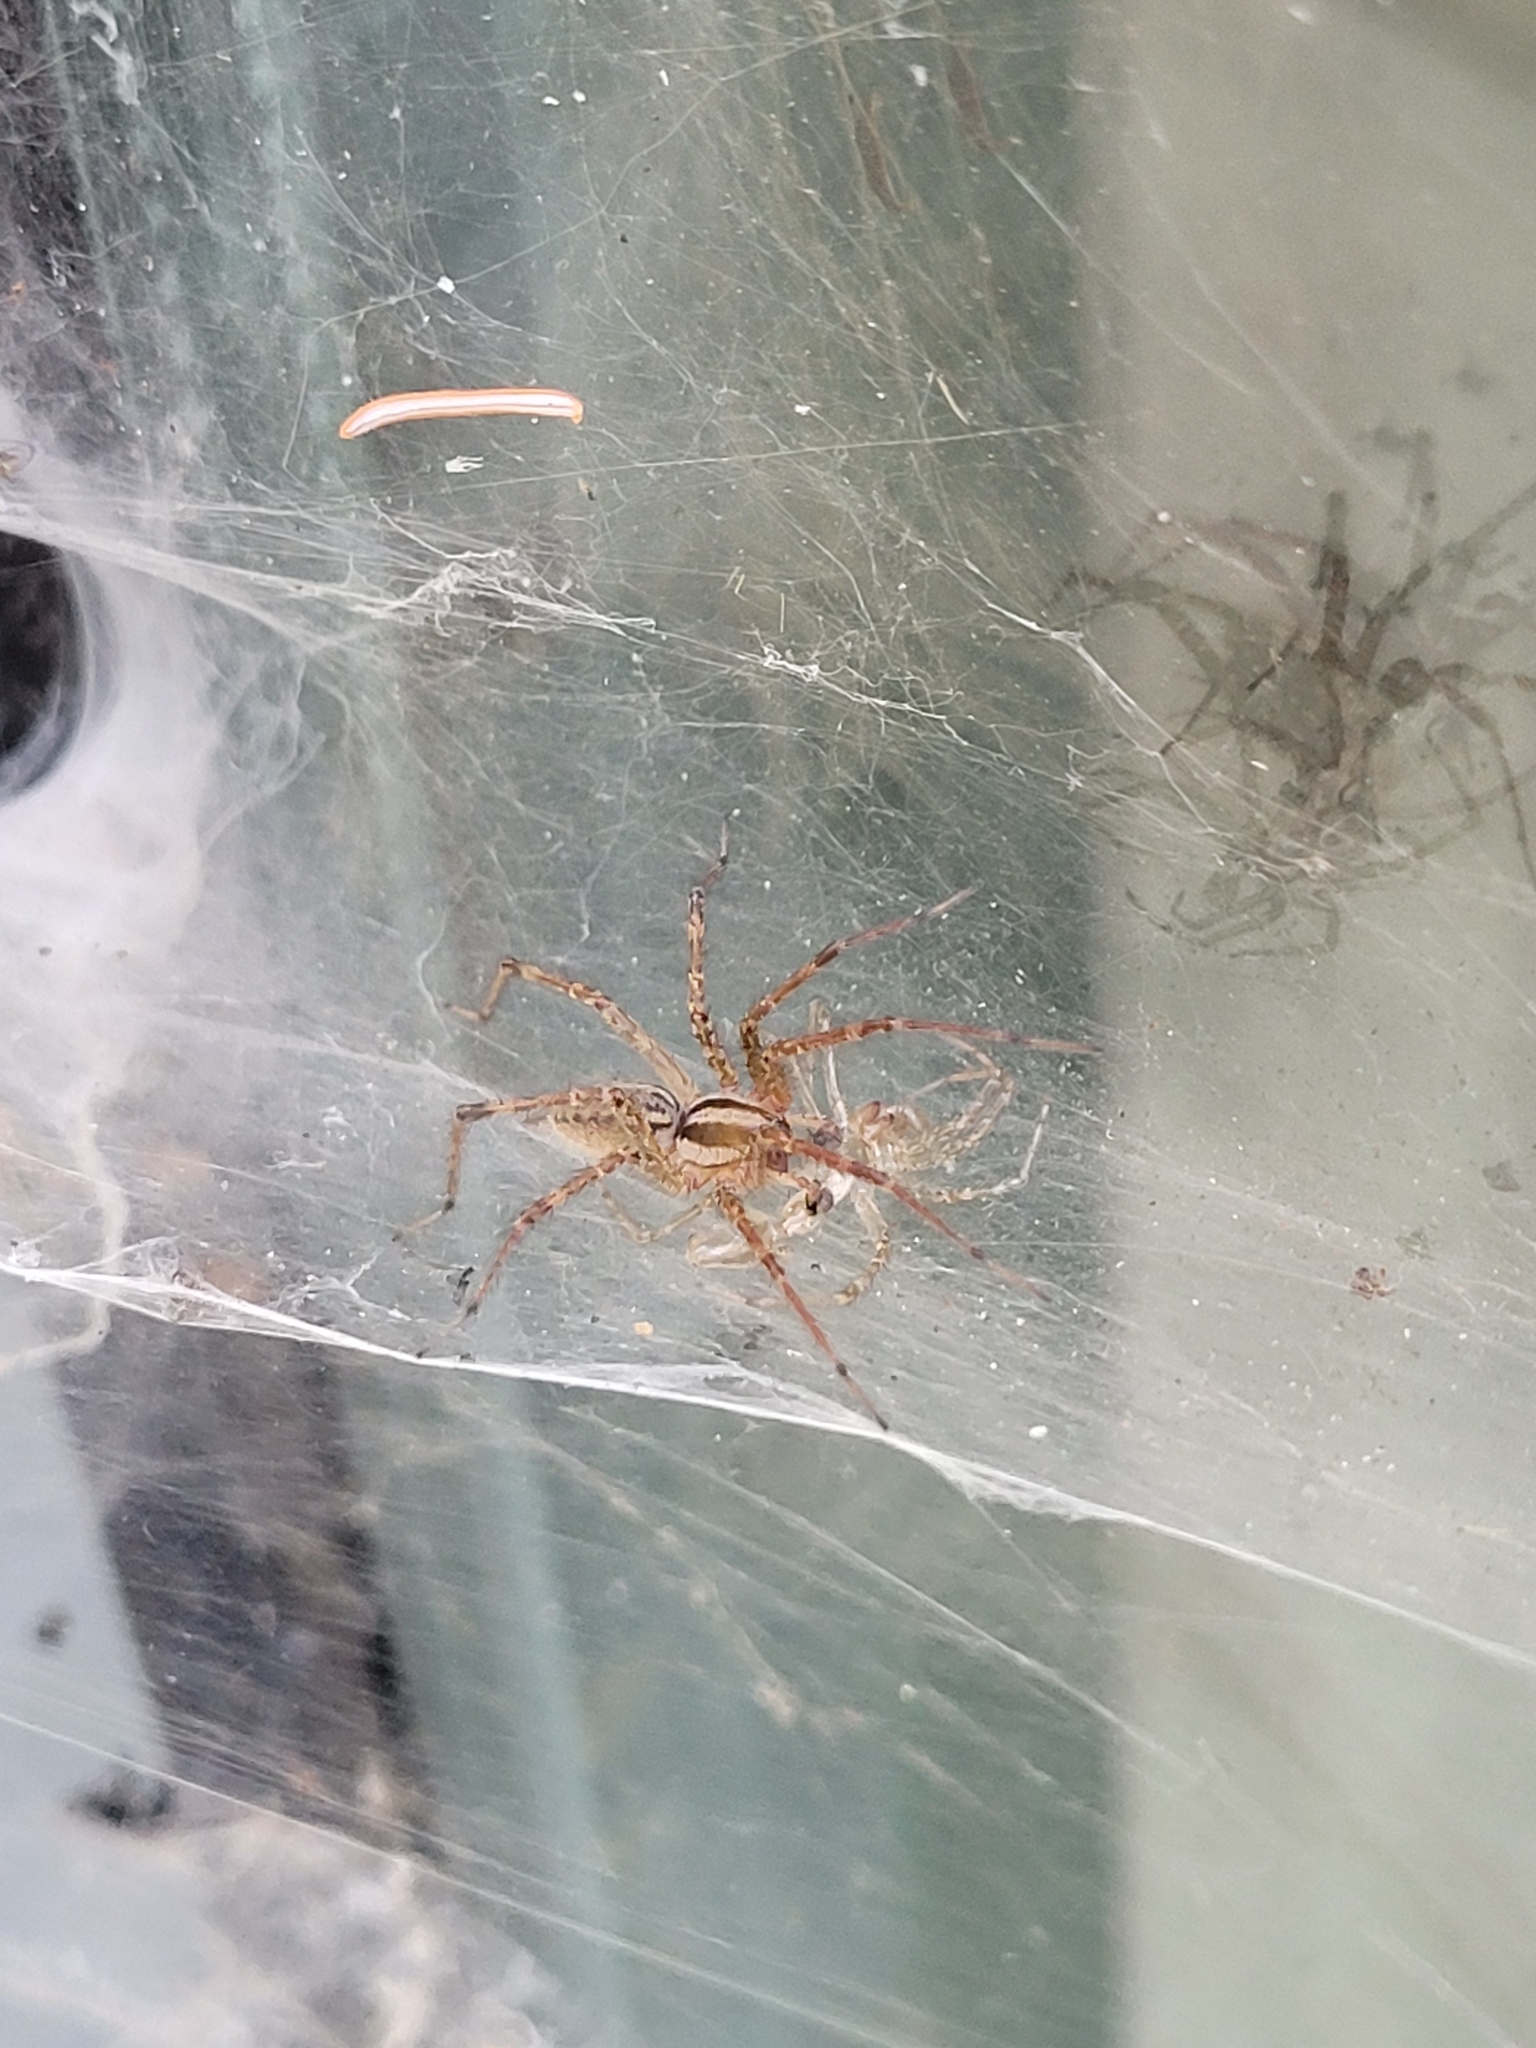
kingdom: Animalia
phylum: Arthropoda
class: Arachnida
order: Araneae
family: Agelenidae
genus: Agelenopsis
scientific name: Agelenopsis
